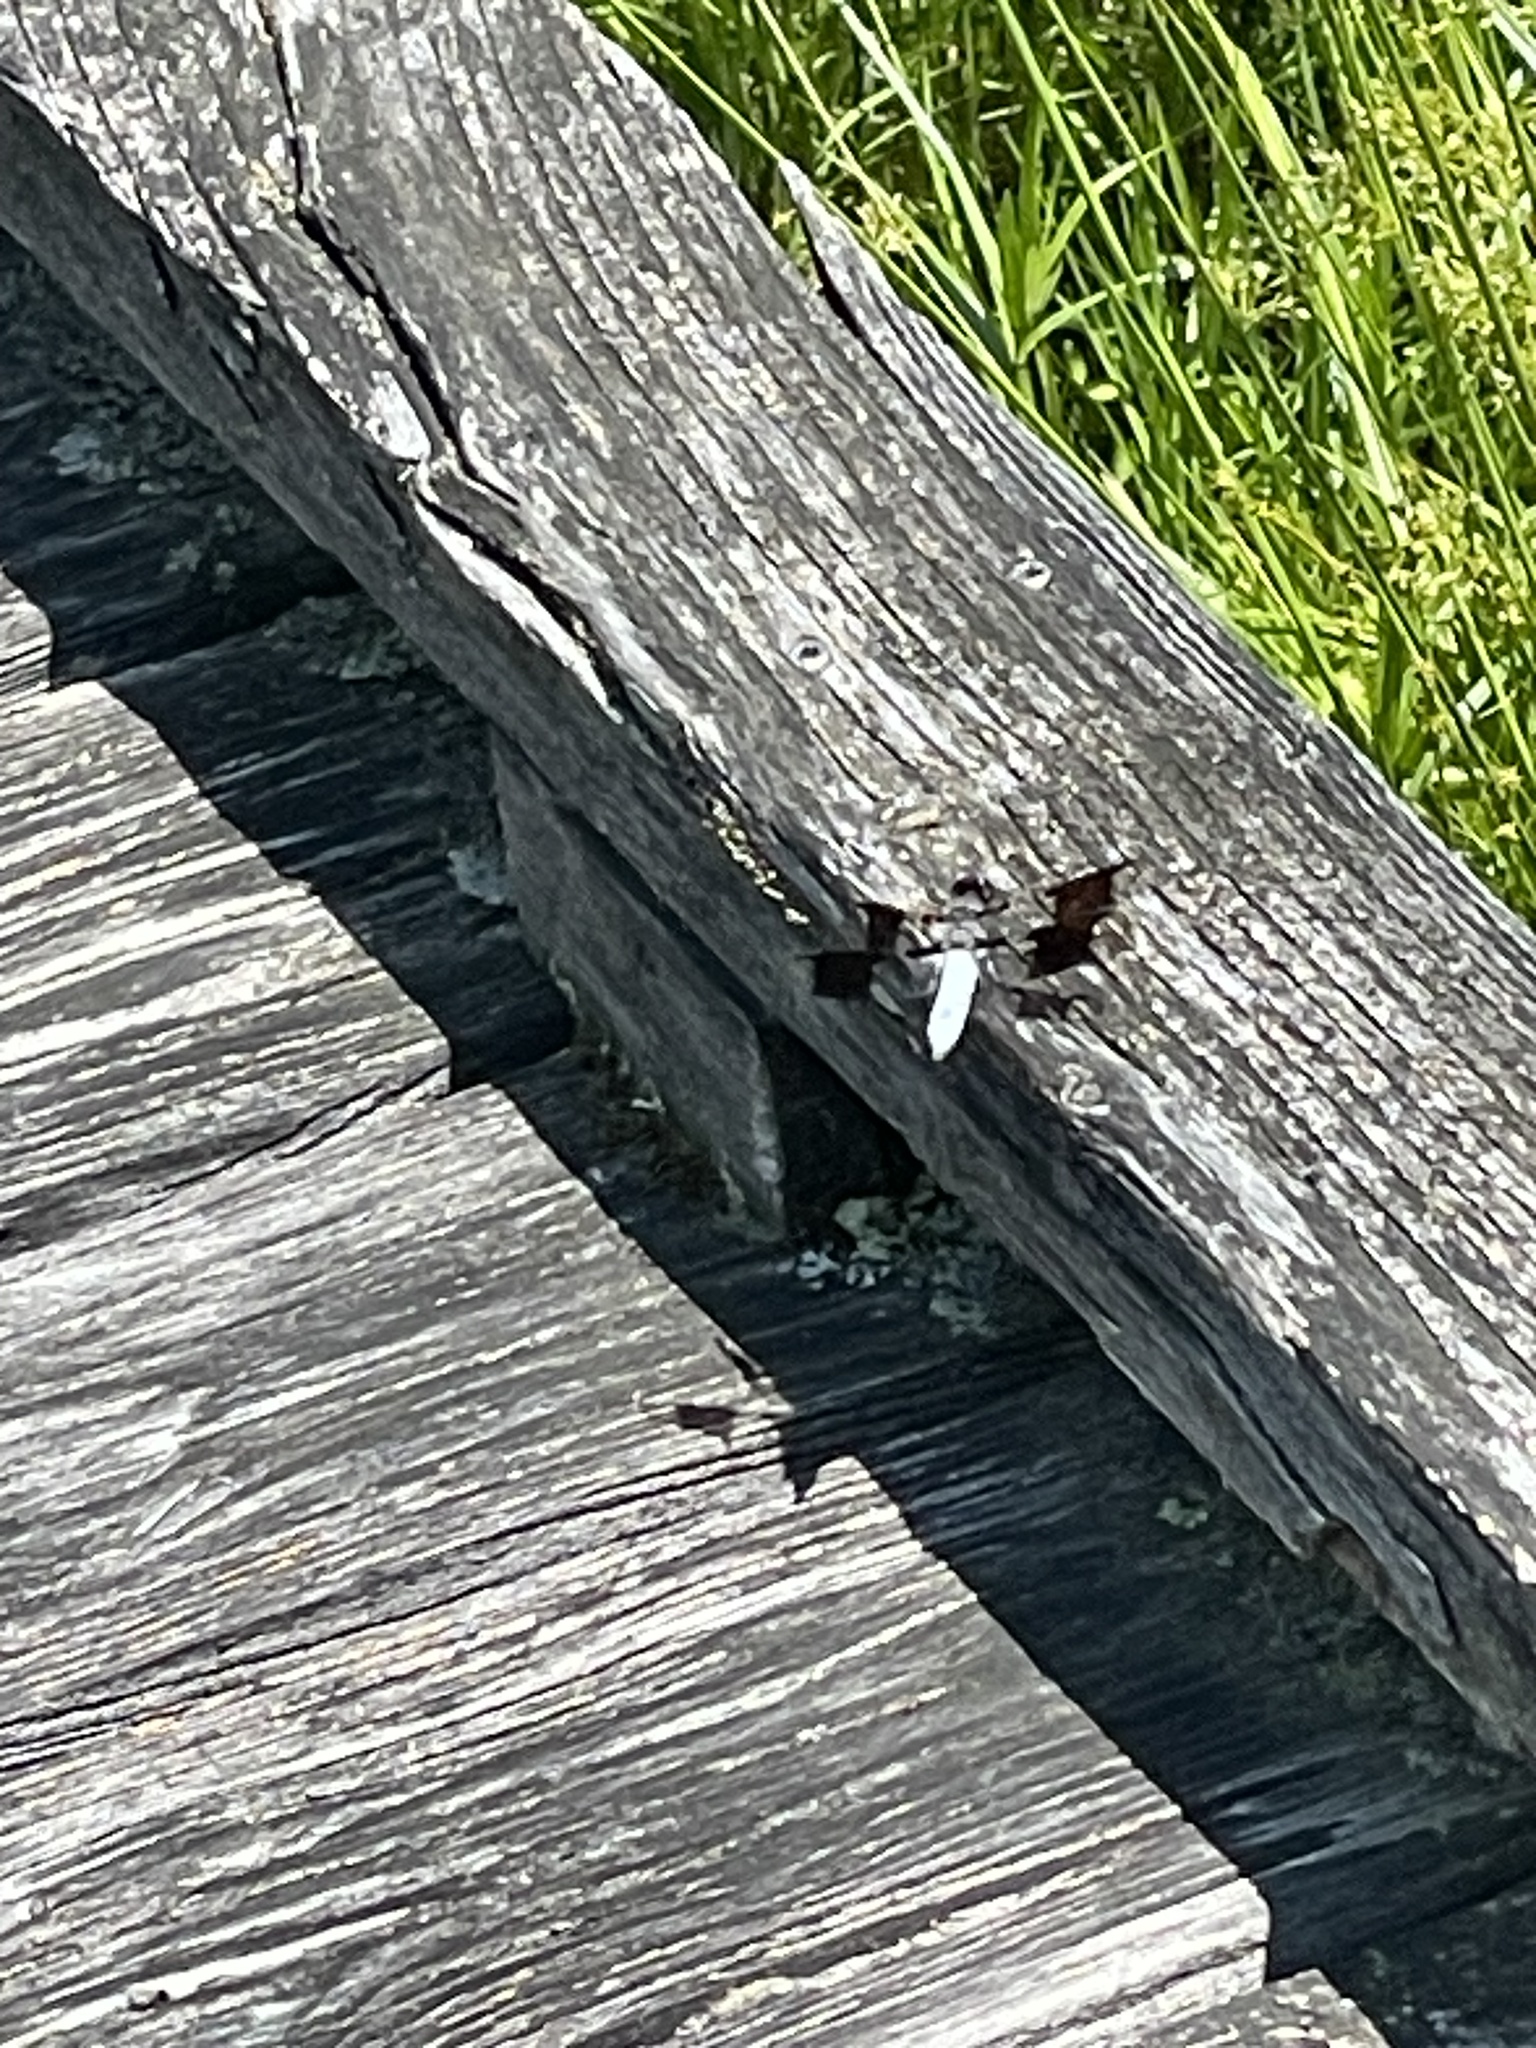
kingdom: Animalia
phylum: Arthropoda
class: Insecta
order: Odonata
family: Libellulidae
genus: Plathemis
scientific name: Plathemis lydia
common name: Common whitetail
